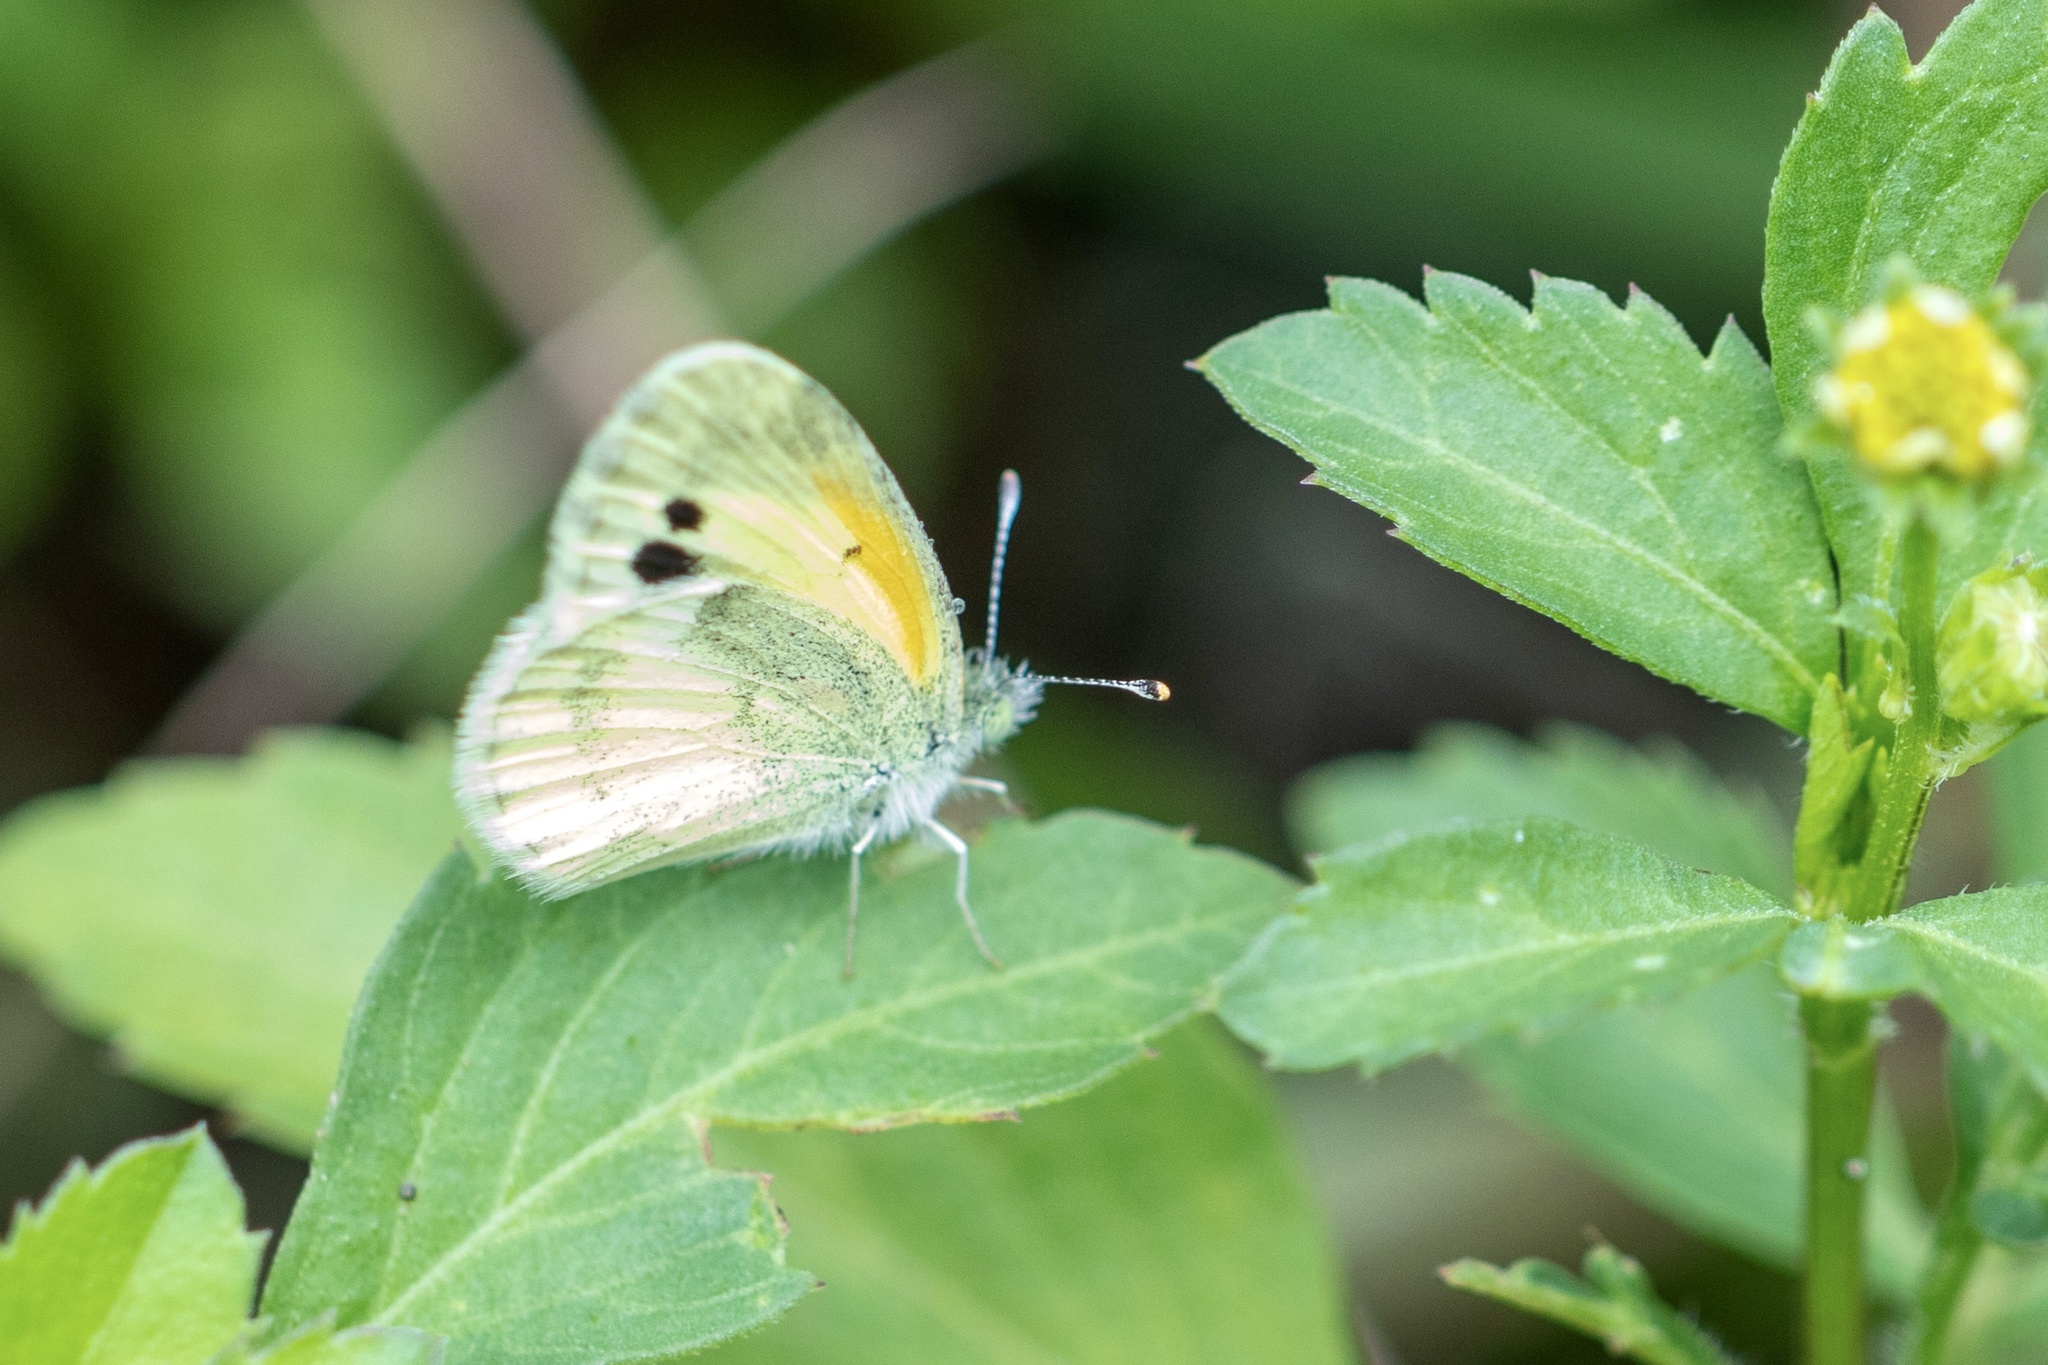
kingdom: Animalia
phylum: Arthropoda
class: Insecta
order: Lepidoptera
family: Pieridae
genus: Nathalis
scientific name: Nathalis iole
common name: Dainty sulphur
